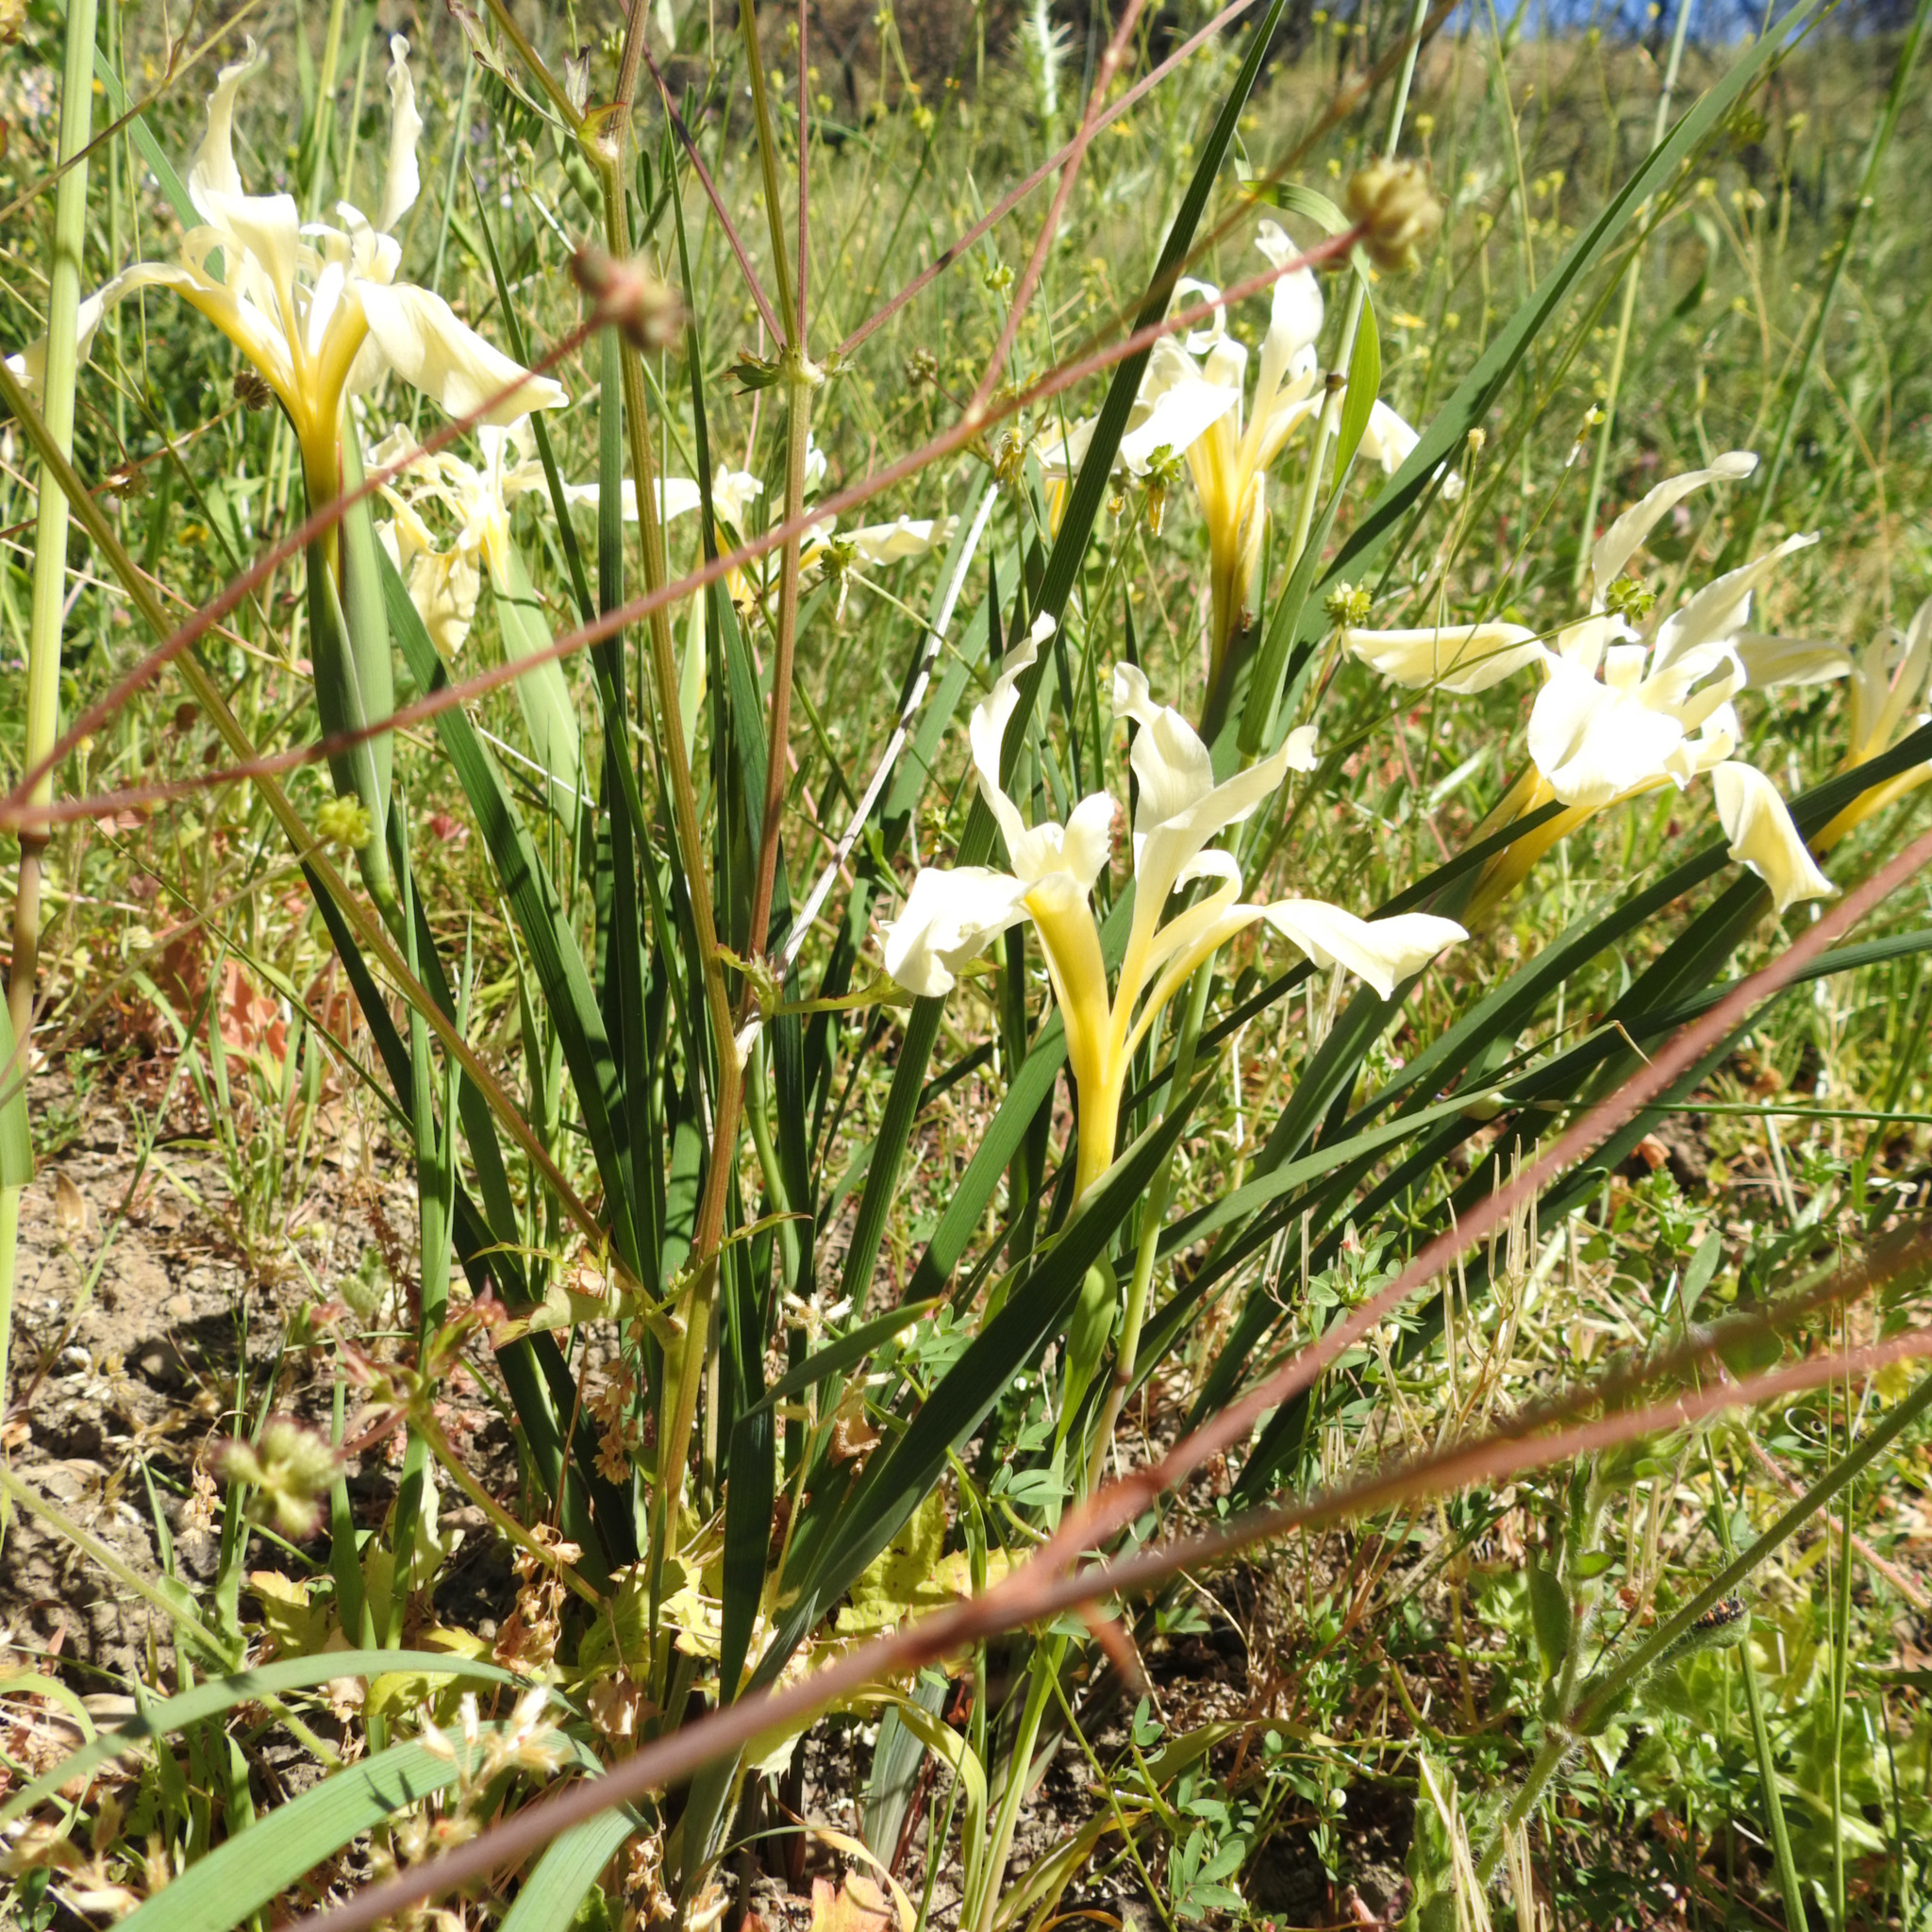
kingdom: Plantae
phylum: Tracheophyta
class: Liliopsida
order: Asparagales
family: Iridaceae
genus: Iris
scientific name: Iris fernaldii
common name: Fernald's iris
